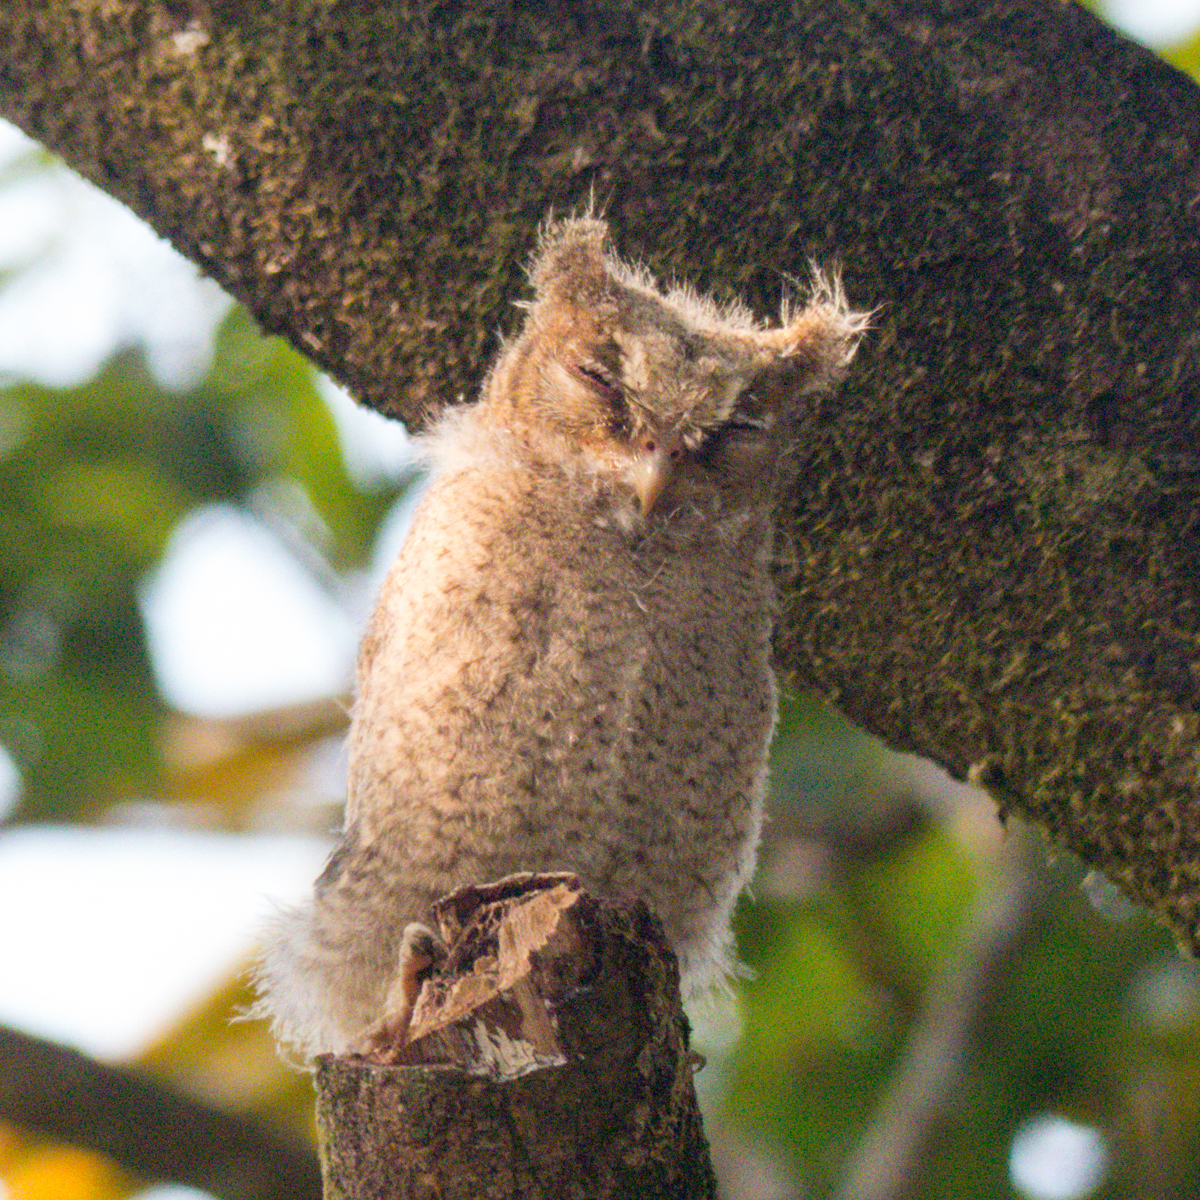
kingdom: Animalia
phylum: Chordata
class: Aves
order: Strigiformes
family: Strigidae
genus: Otus
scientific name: Otus lettia
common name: Collared scops owl
